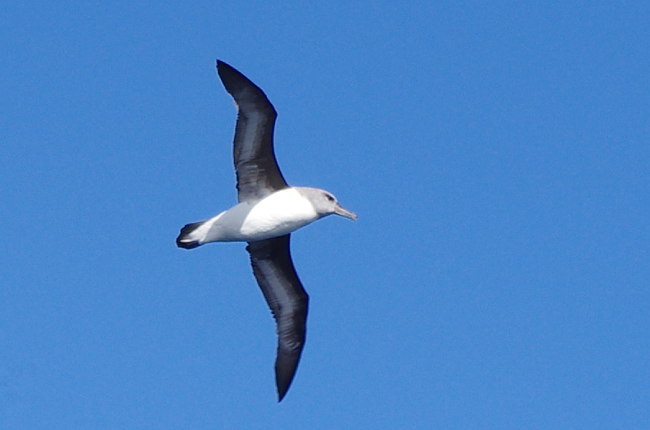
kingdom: Animalia
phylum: Chordata
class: Aves
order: Procellariiformes
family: Diomedeidae
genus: Thalassarche
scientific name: Thalassarche chrysostoma
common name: Grey-headed albatross
